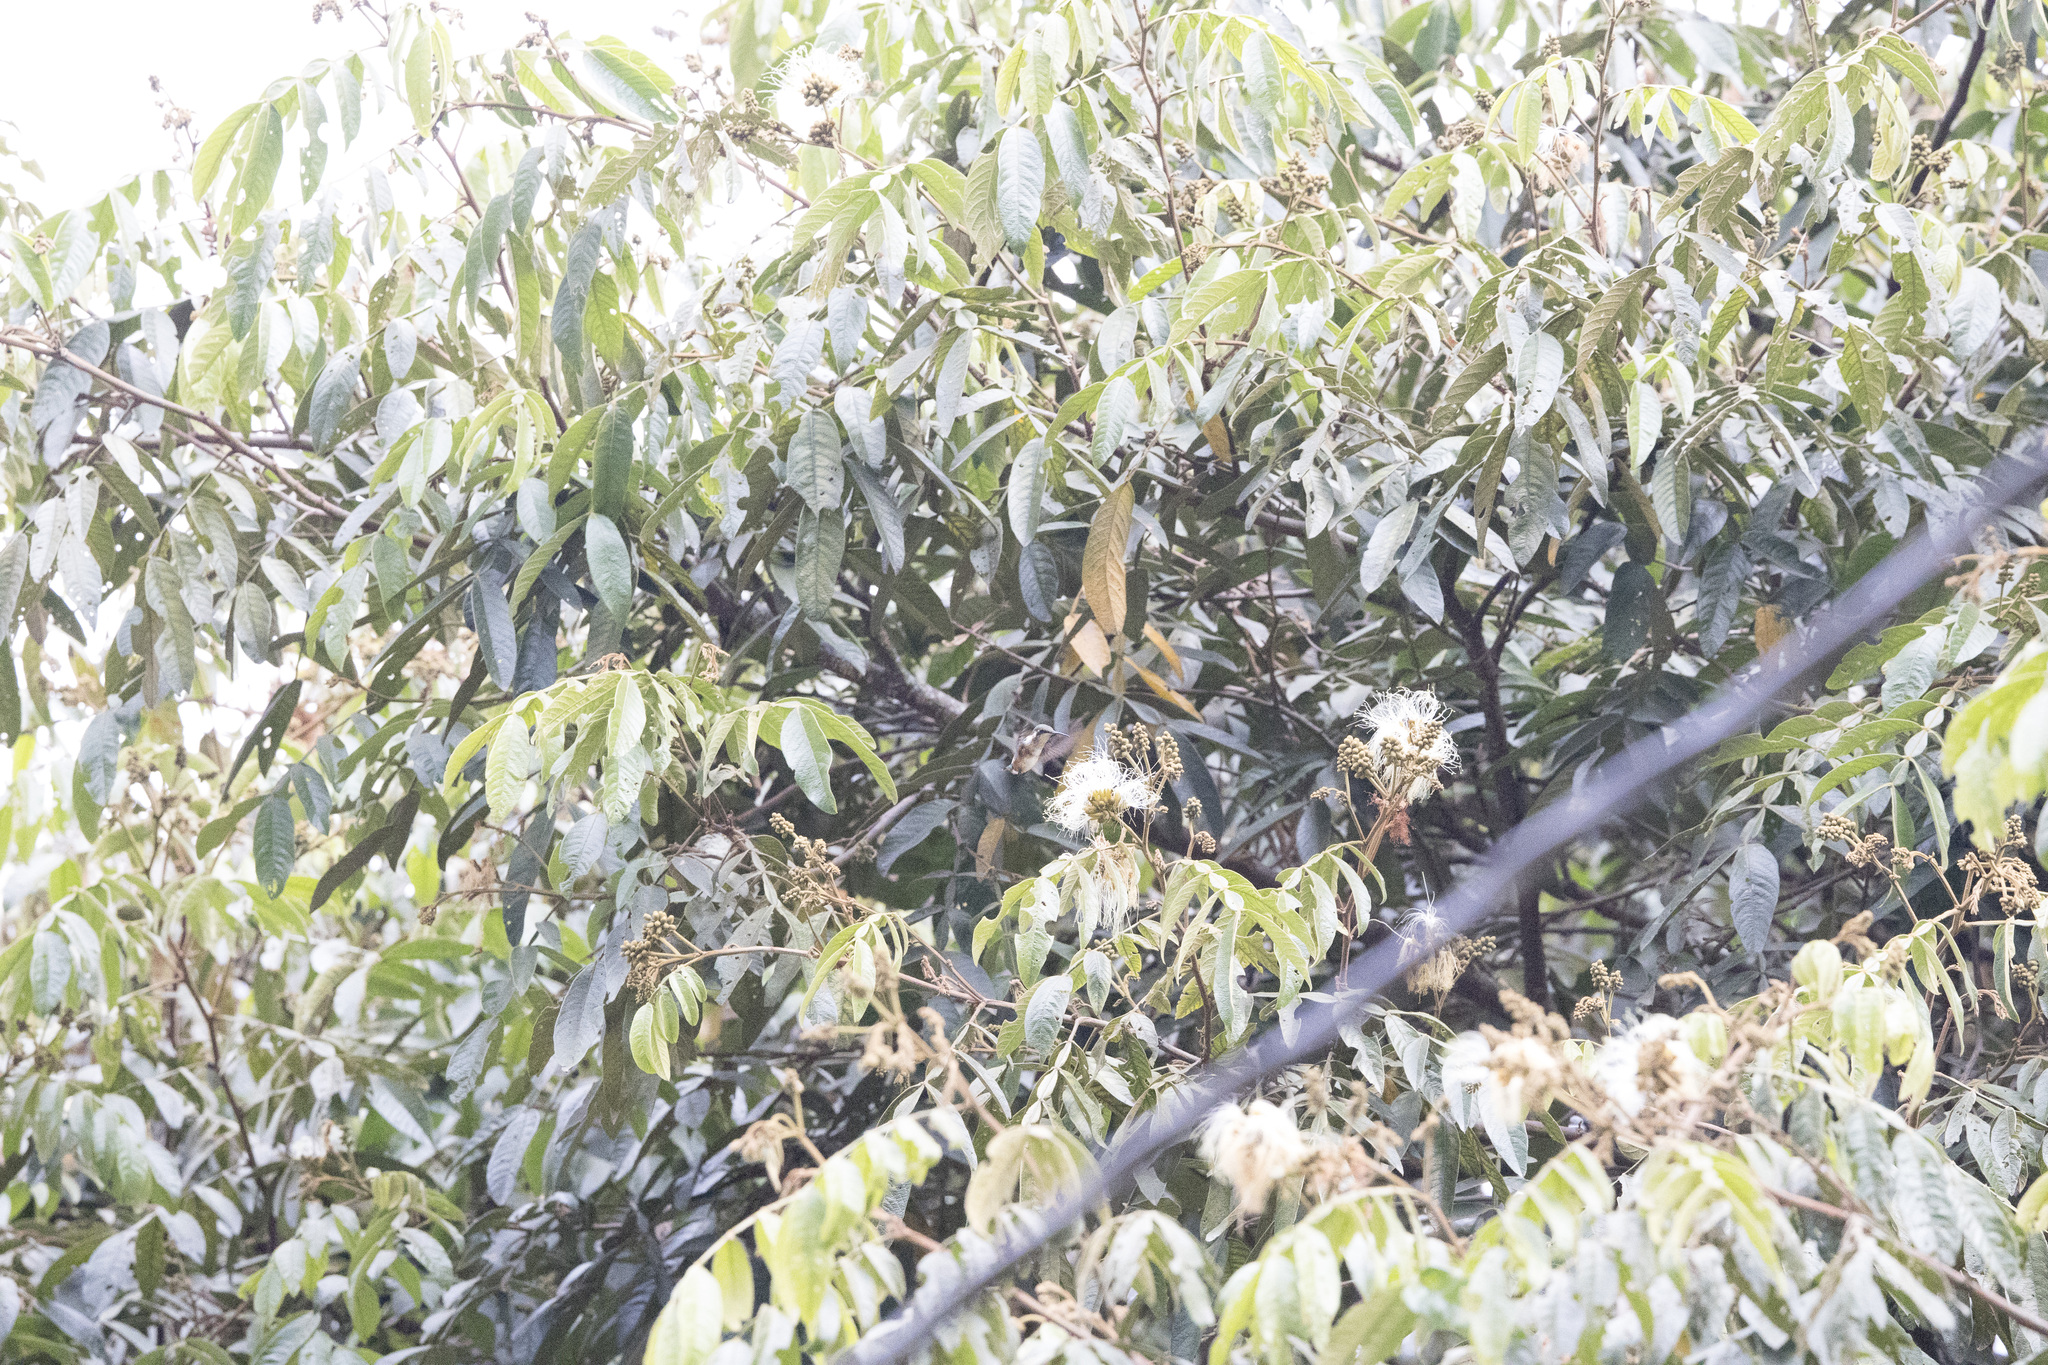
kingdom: Animalia
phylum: Chordata
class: Aves
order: Apodiformes
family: Trochilidae
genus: Chaetocercus
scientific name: Chaetocercus mulsant
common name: White-bellied woodstar
